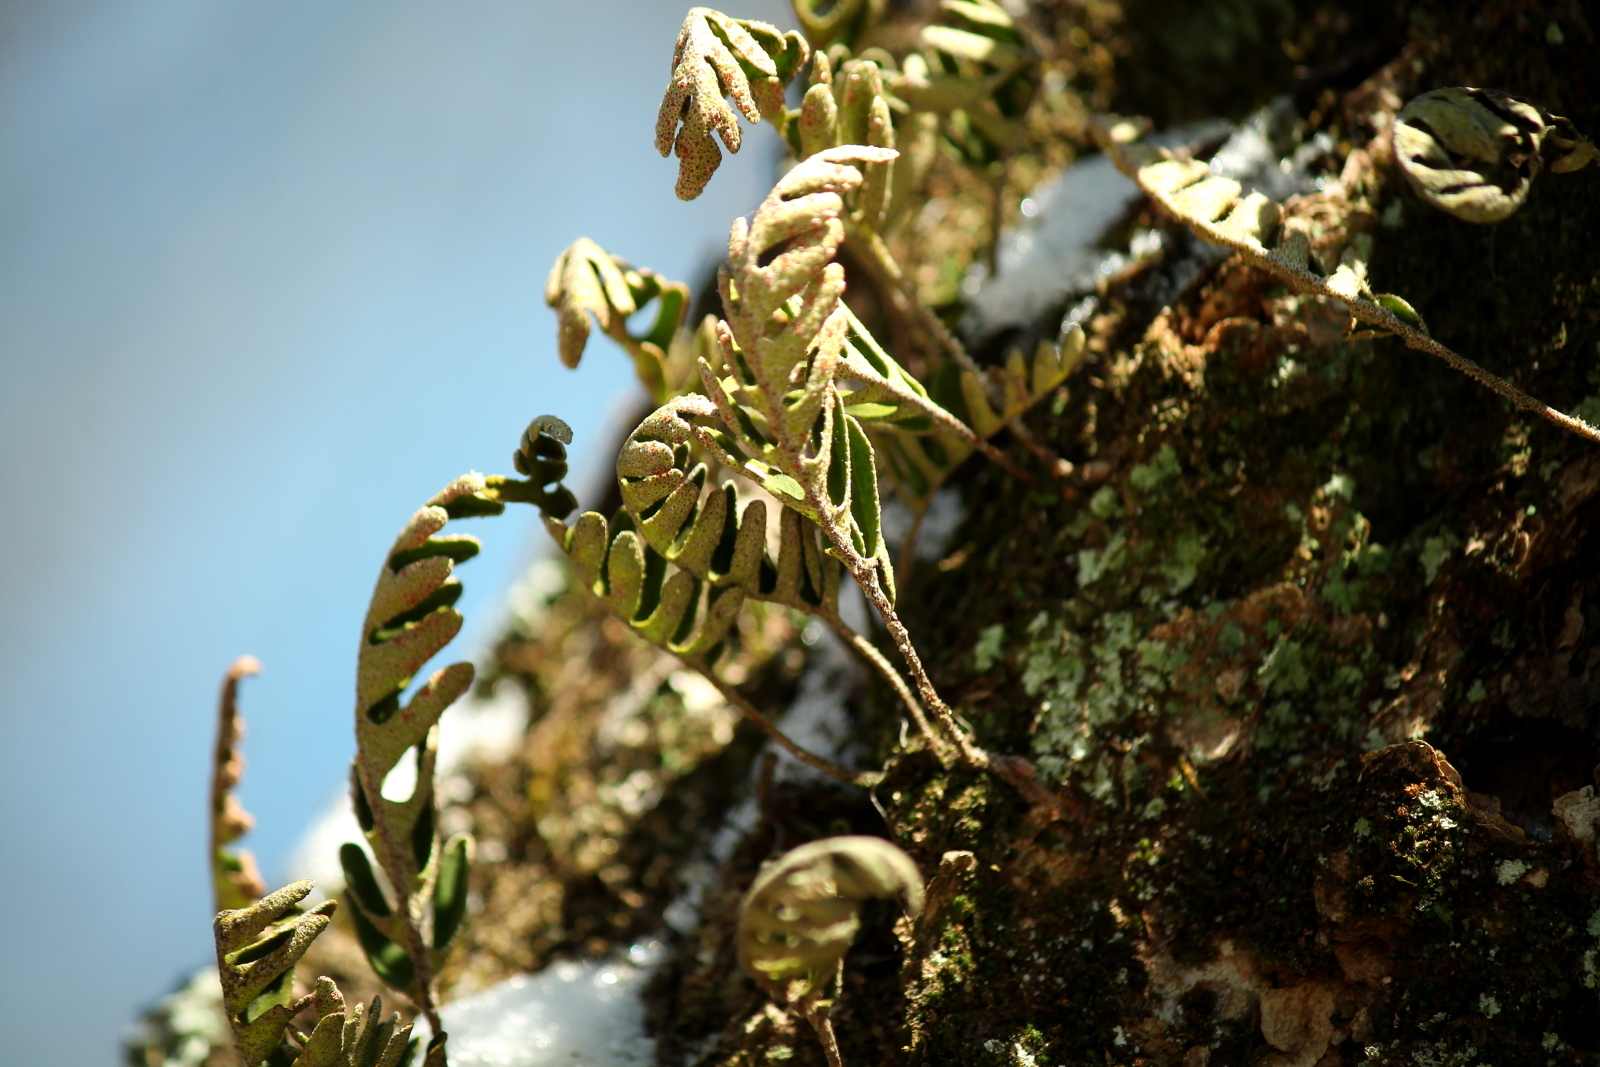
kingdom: Plantae
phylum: Tracheophyta
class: Polypodiopsida
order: Polypodiales
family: Polypodiaceae
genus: Pleopeltis
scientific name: Pleopeltis michauxiana
